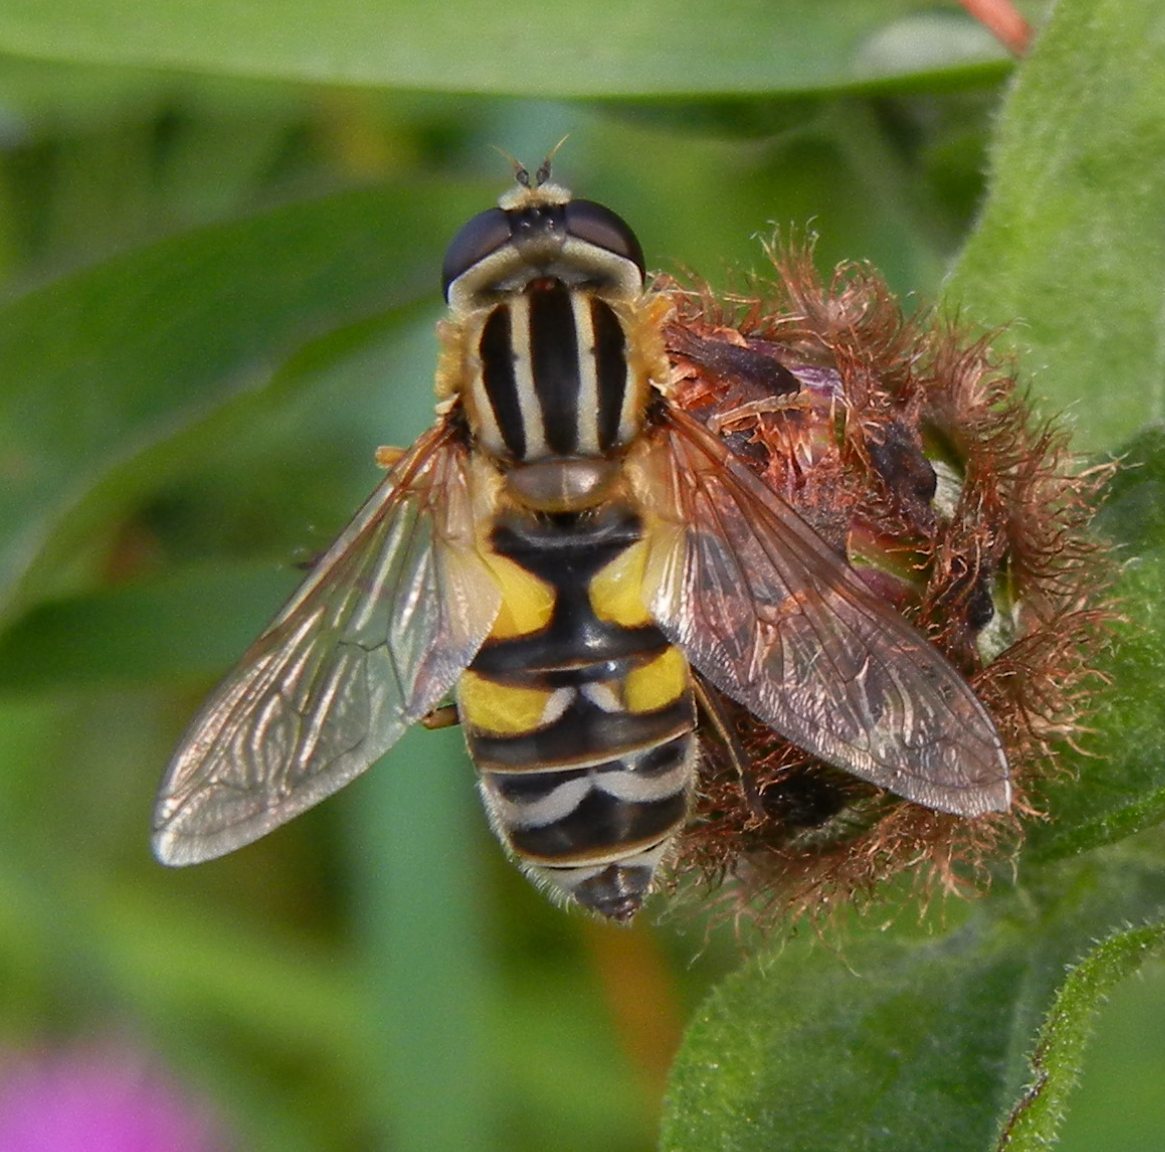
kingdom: Animalia
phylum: Arthropoda
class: Insecta
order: Diptera
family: Syrphidae
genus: Helophilus
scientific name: Helophilus trivittatus
